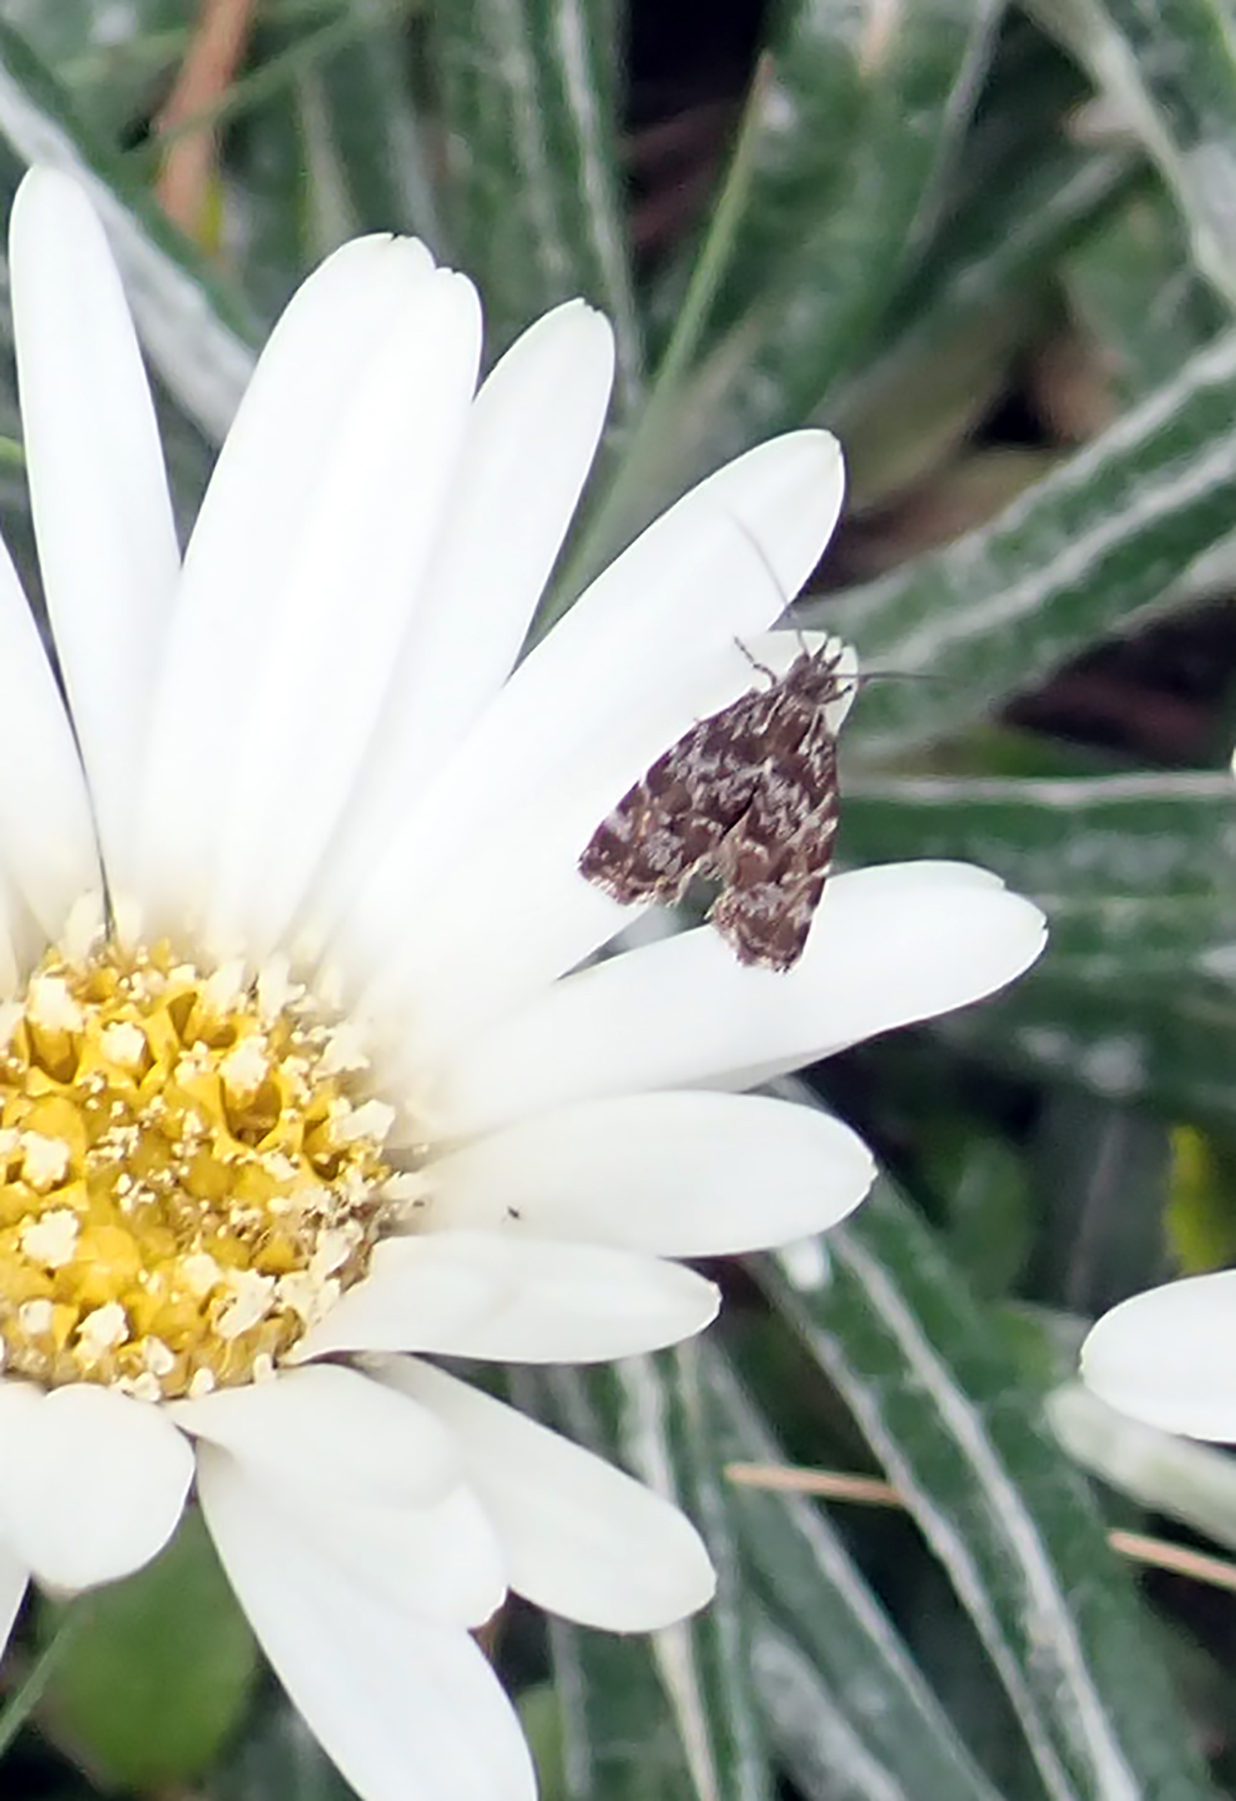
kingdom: Animalia
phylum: Arthropoda
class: Insecta
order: Lepidoptera
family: Choreutidae
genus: Asterivora
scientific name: Asterivora colpota
